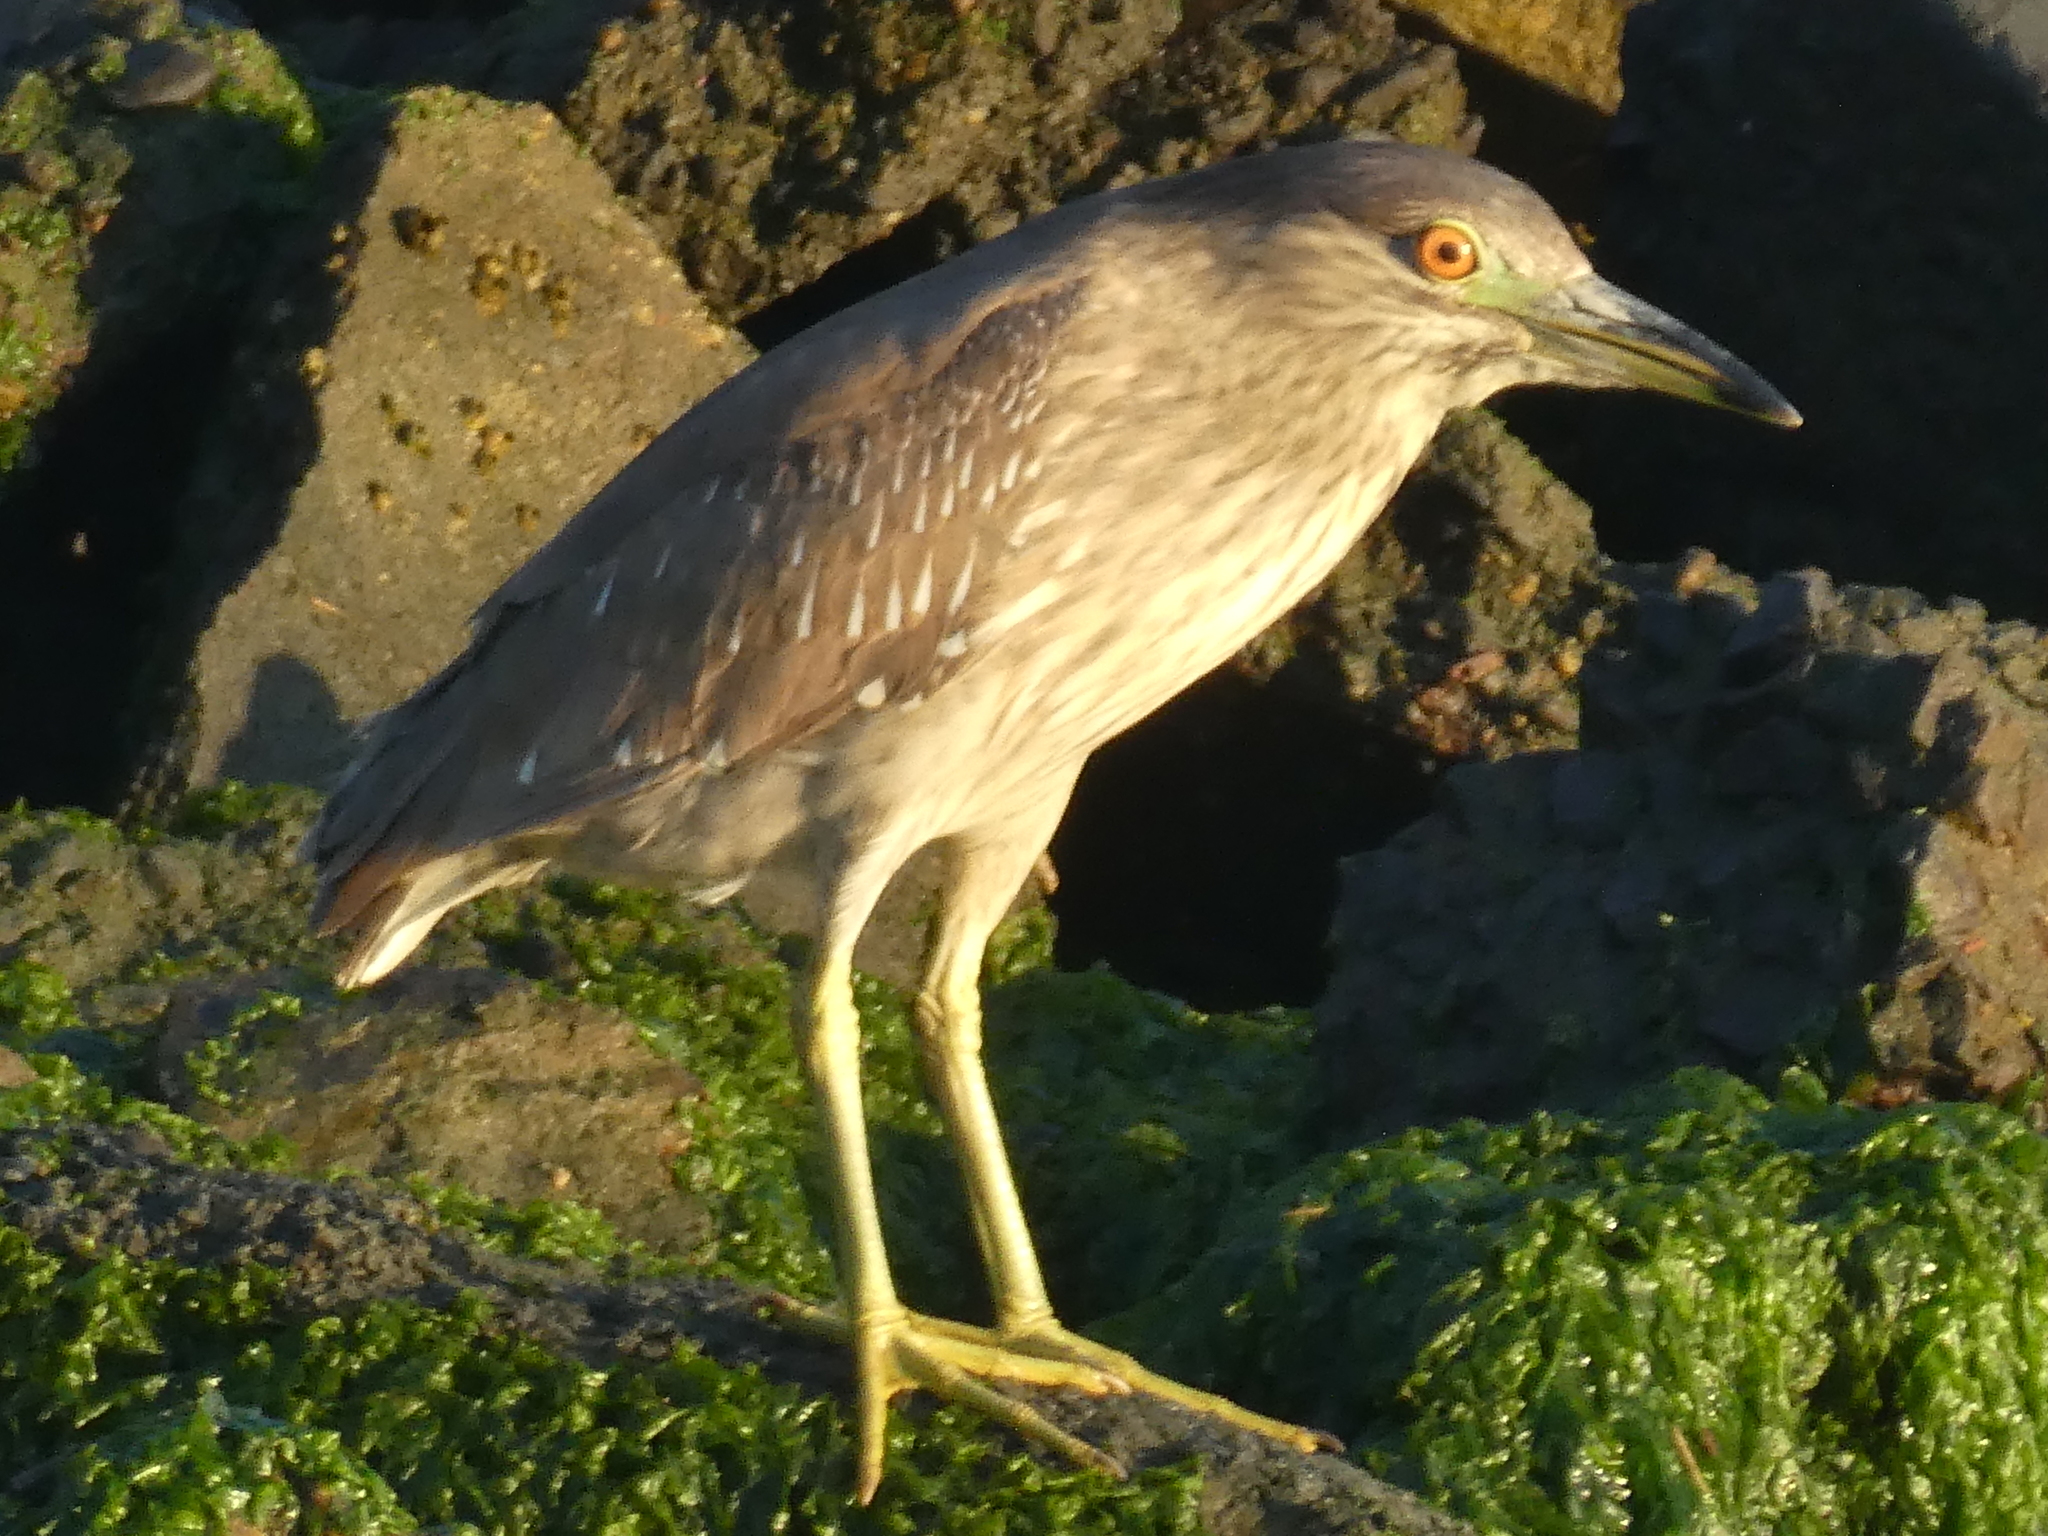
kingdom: Animalia
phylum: Chordata
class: Aves
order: Pelecaniformes
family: Ardeidae
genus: Nycticorax
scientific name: Nycticorax nycticorax
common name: Black-crowned night heron
